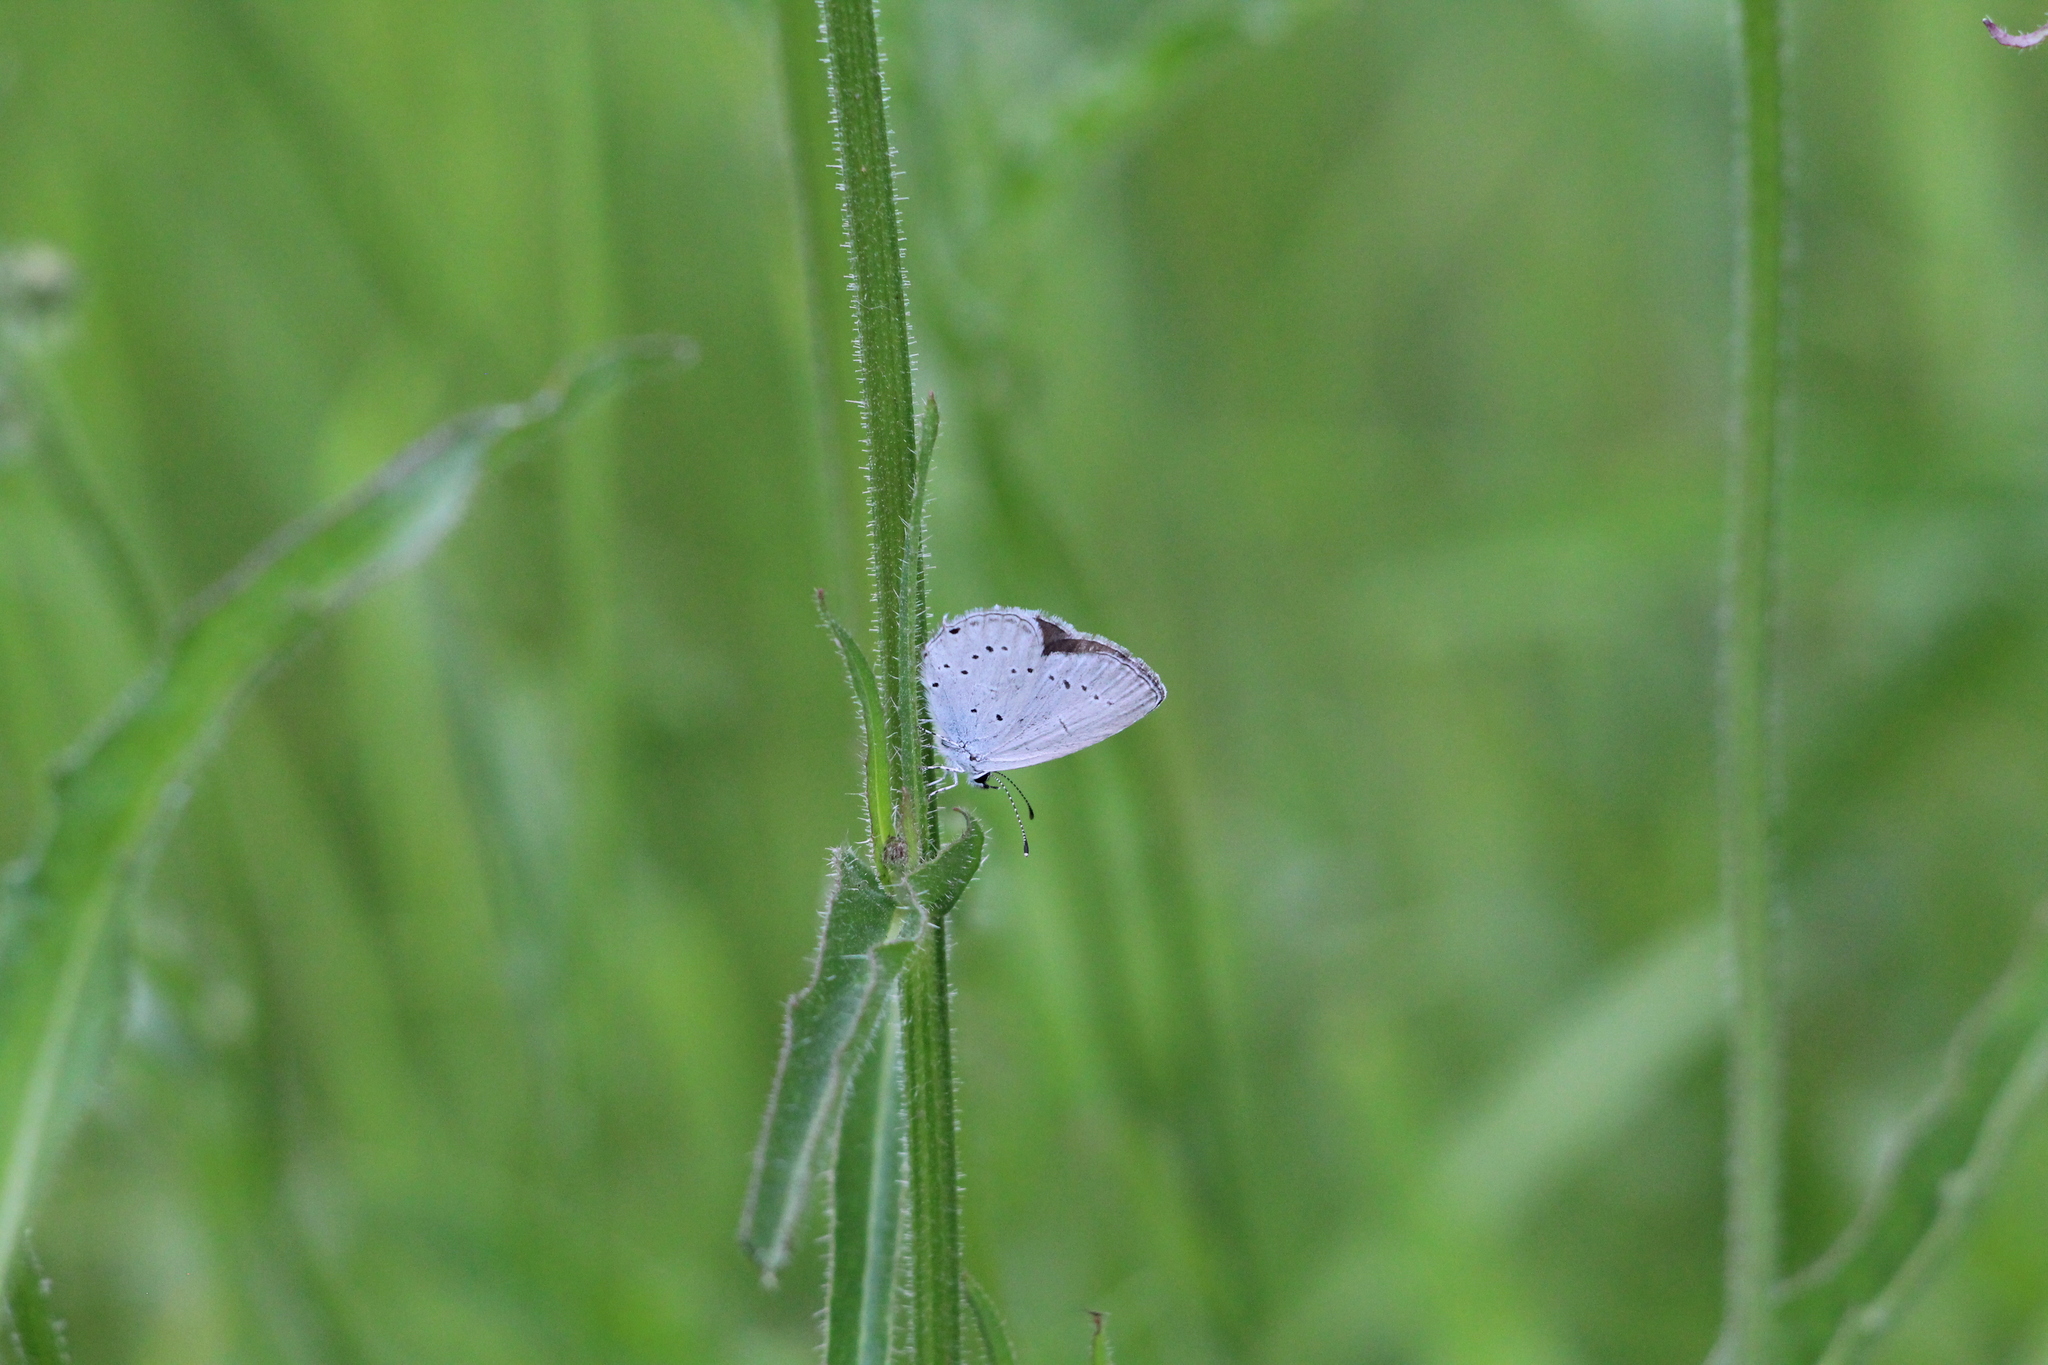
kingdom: Animalia
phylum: Arthropoda
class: Insecta
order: Lepidoptera
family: Lycaenidae
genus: Elkalyce
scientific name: Elkalyce alcetas
